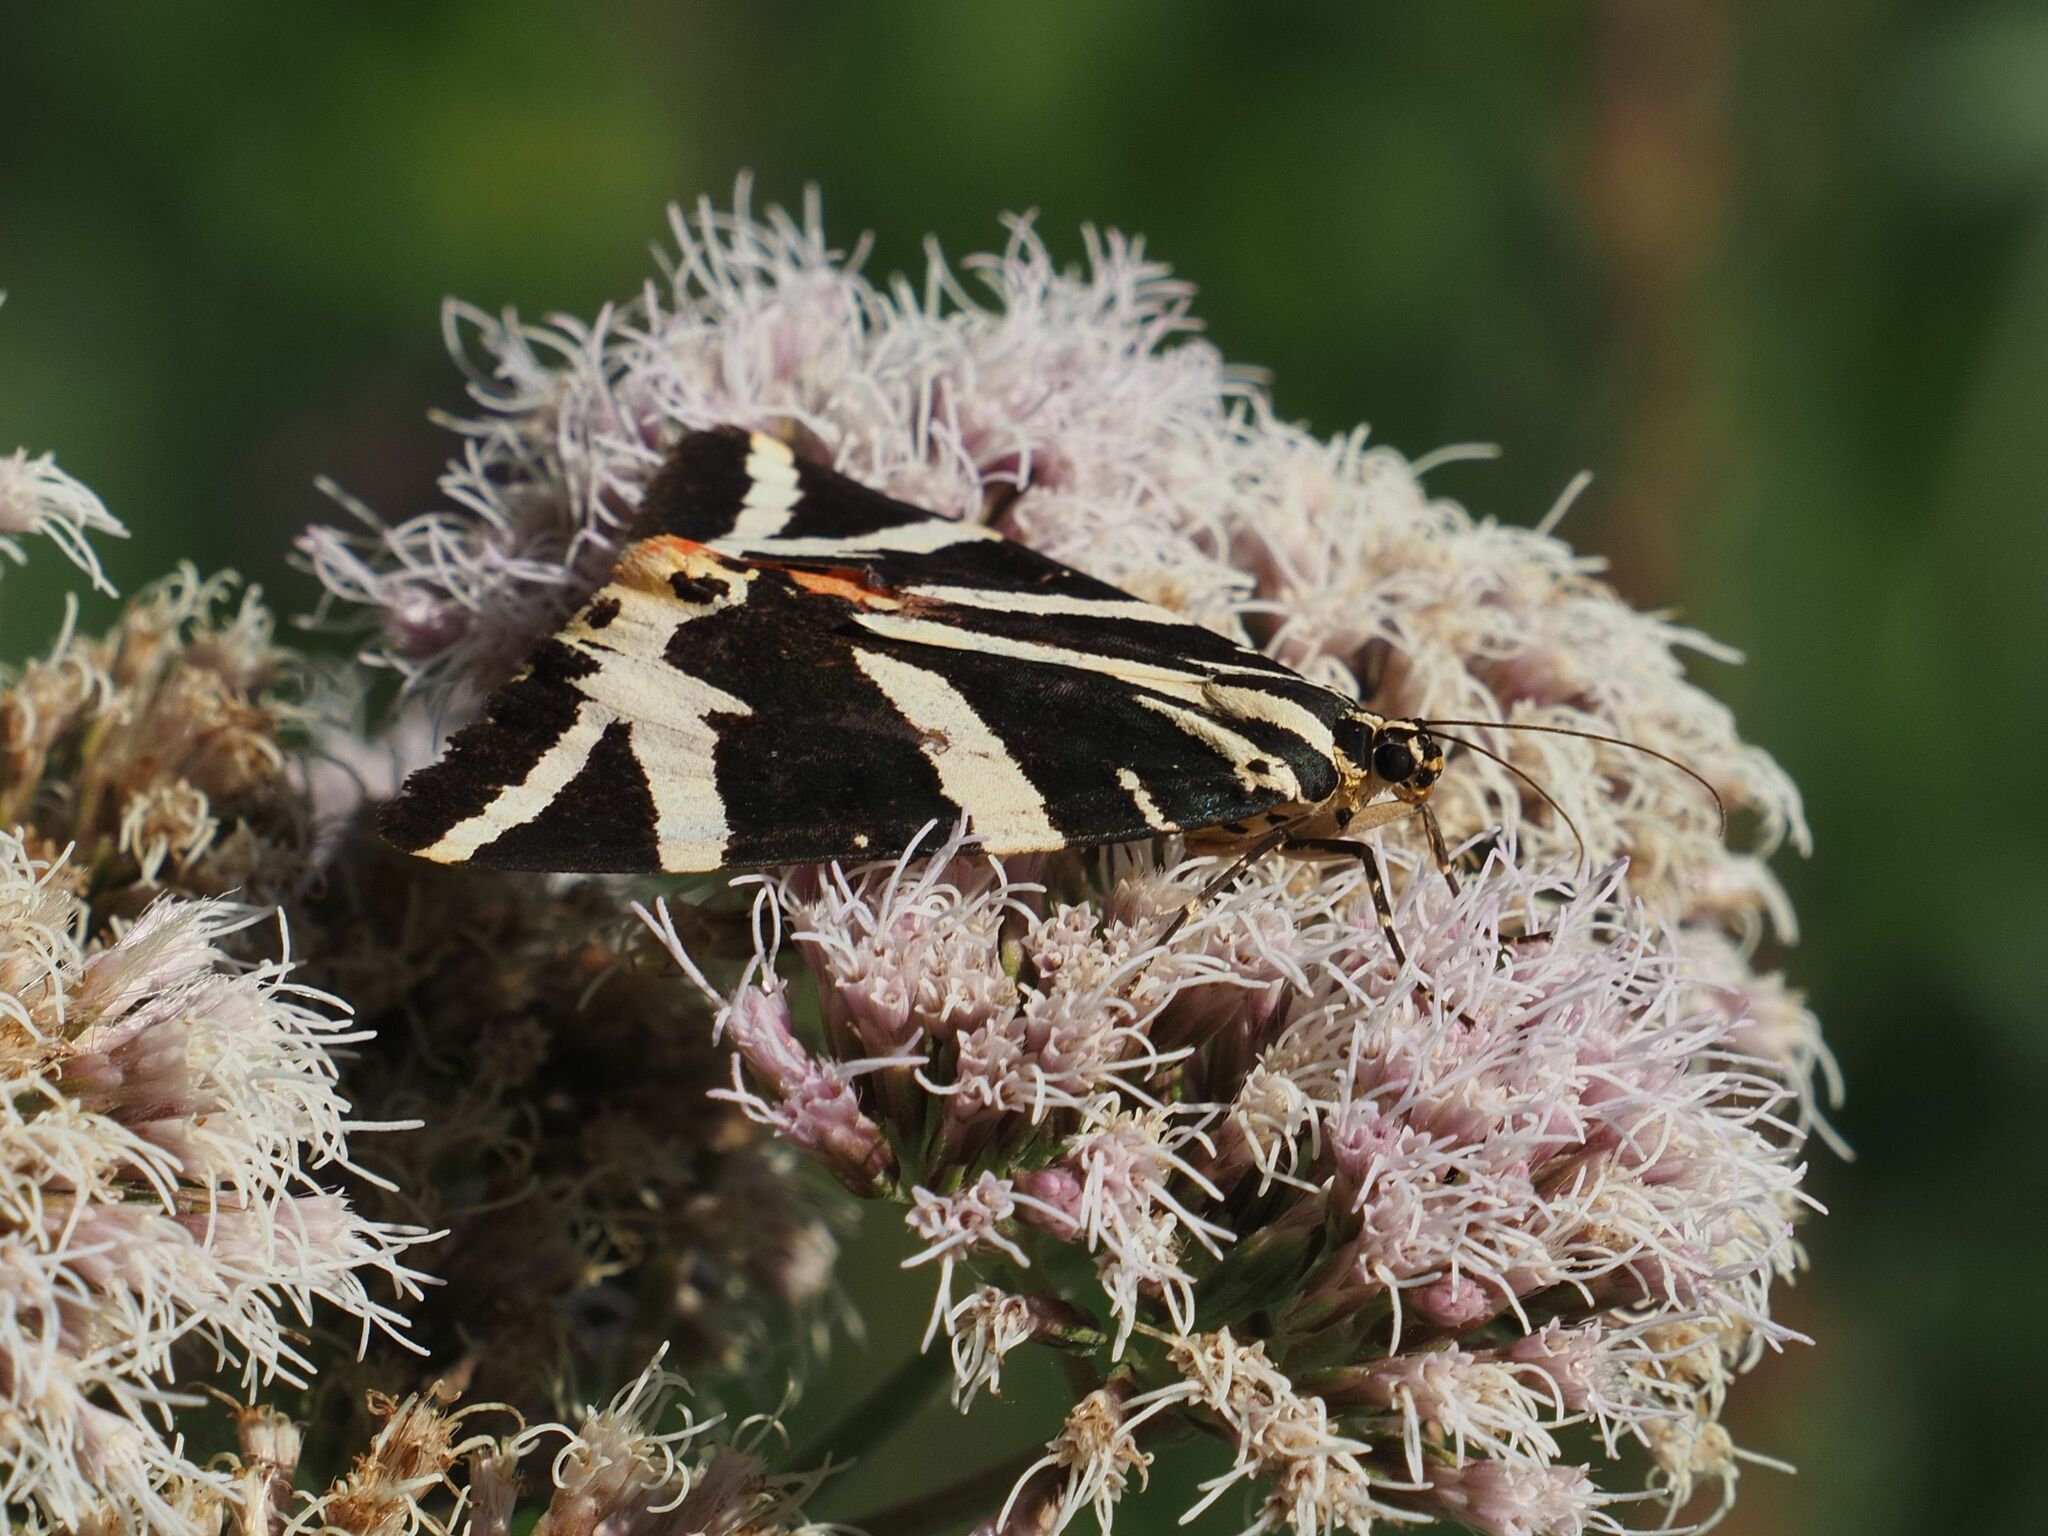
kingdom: Animalia
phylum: Arthropoda
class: Insecta
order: Lepidoptera
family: Erebidae
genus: Euplagia
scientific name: Euplagia quadripunctaria
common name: Jersey tiger
